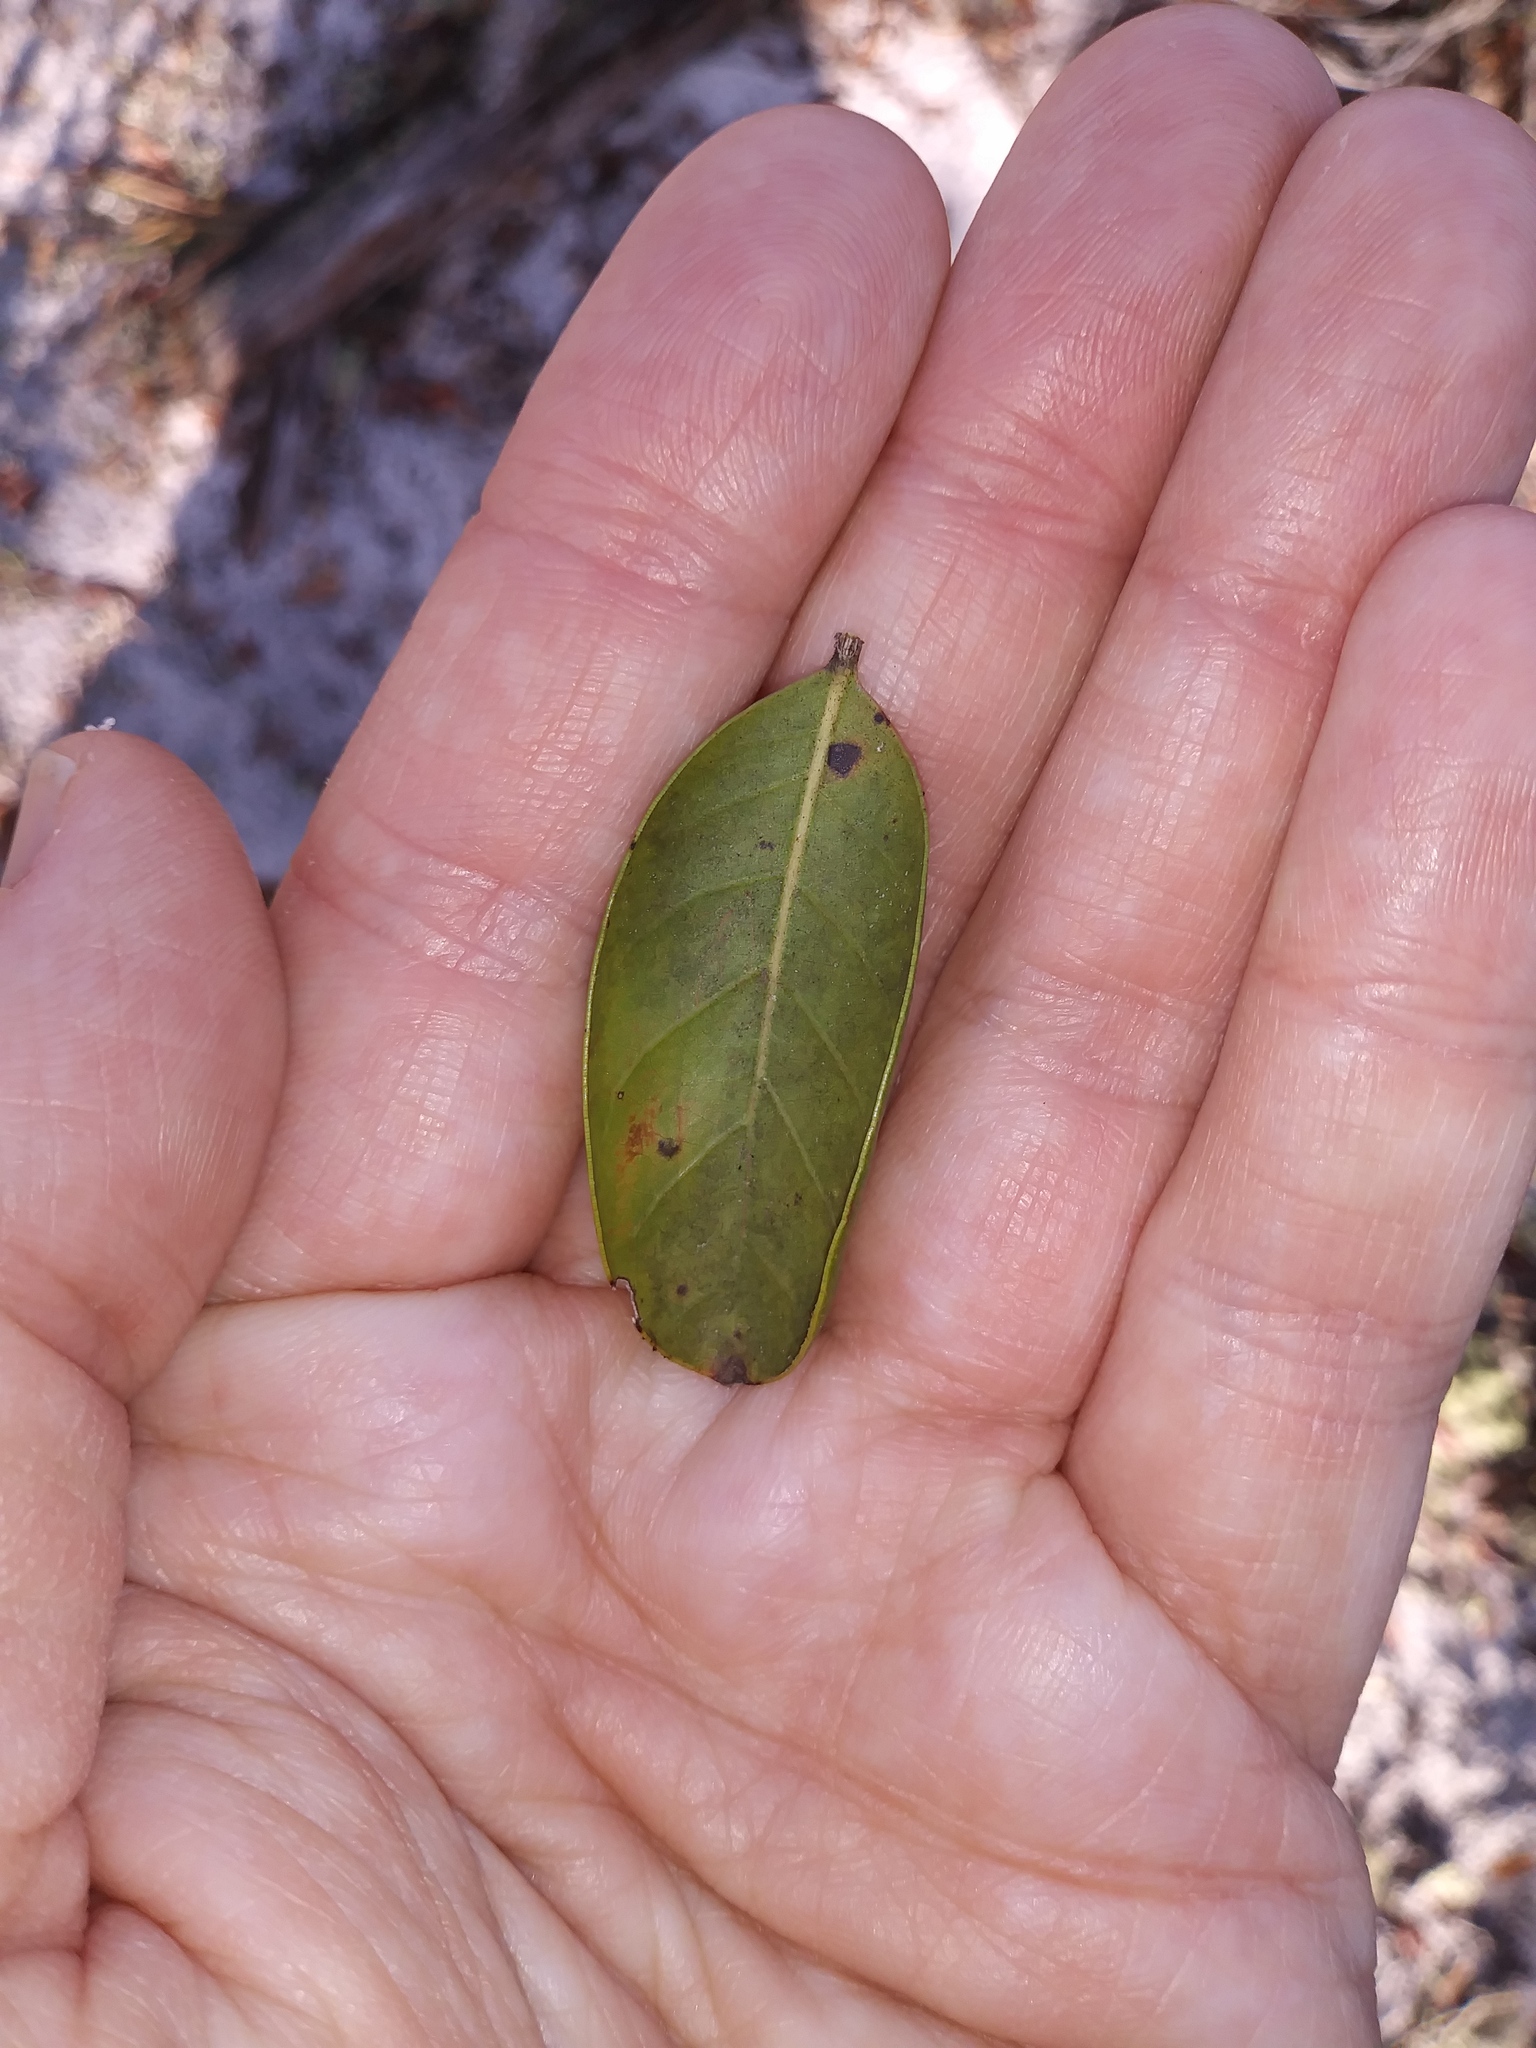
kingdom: Plantae
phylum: Tracheophyta
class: Magnoliopsida
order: Fagales
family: Fagaceae
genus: Quercus
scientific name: Quercus inopina
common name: Sandhill oak
